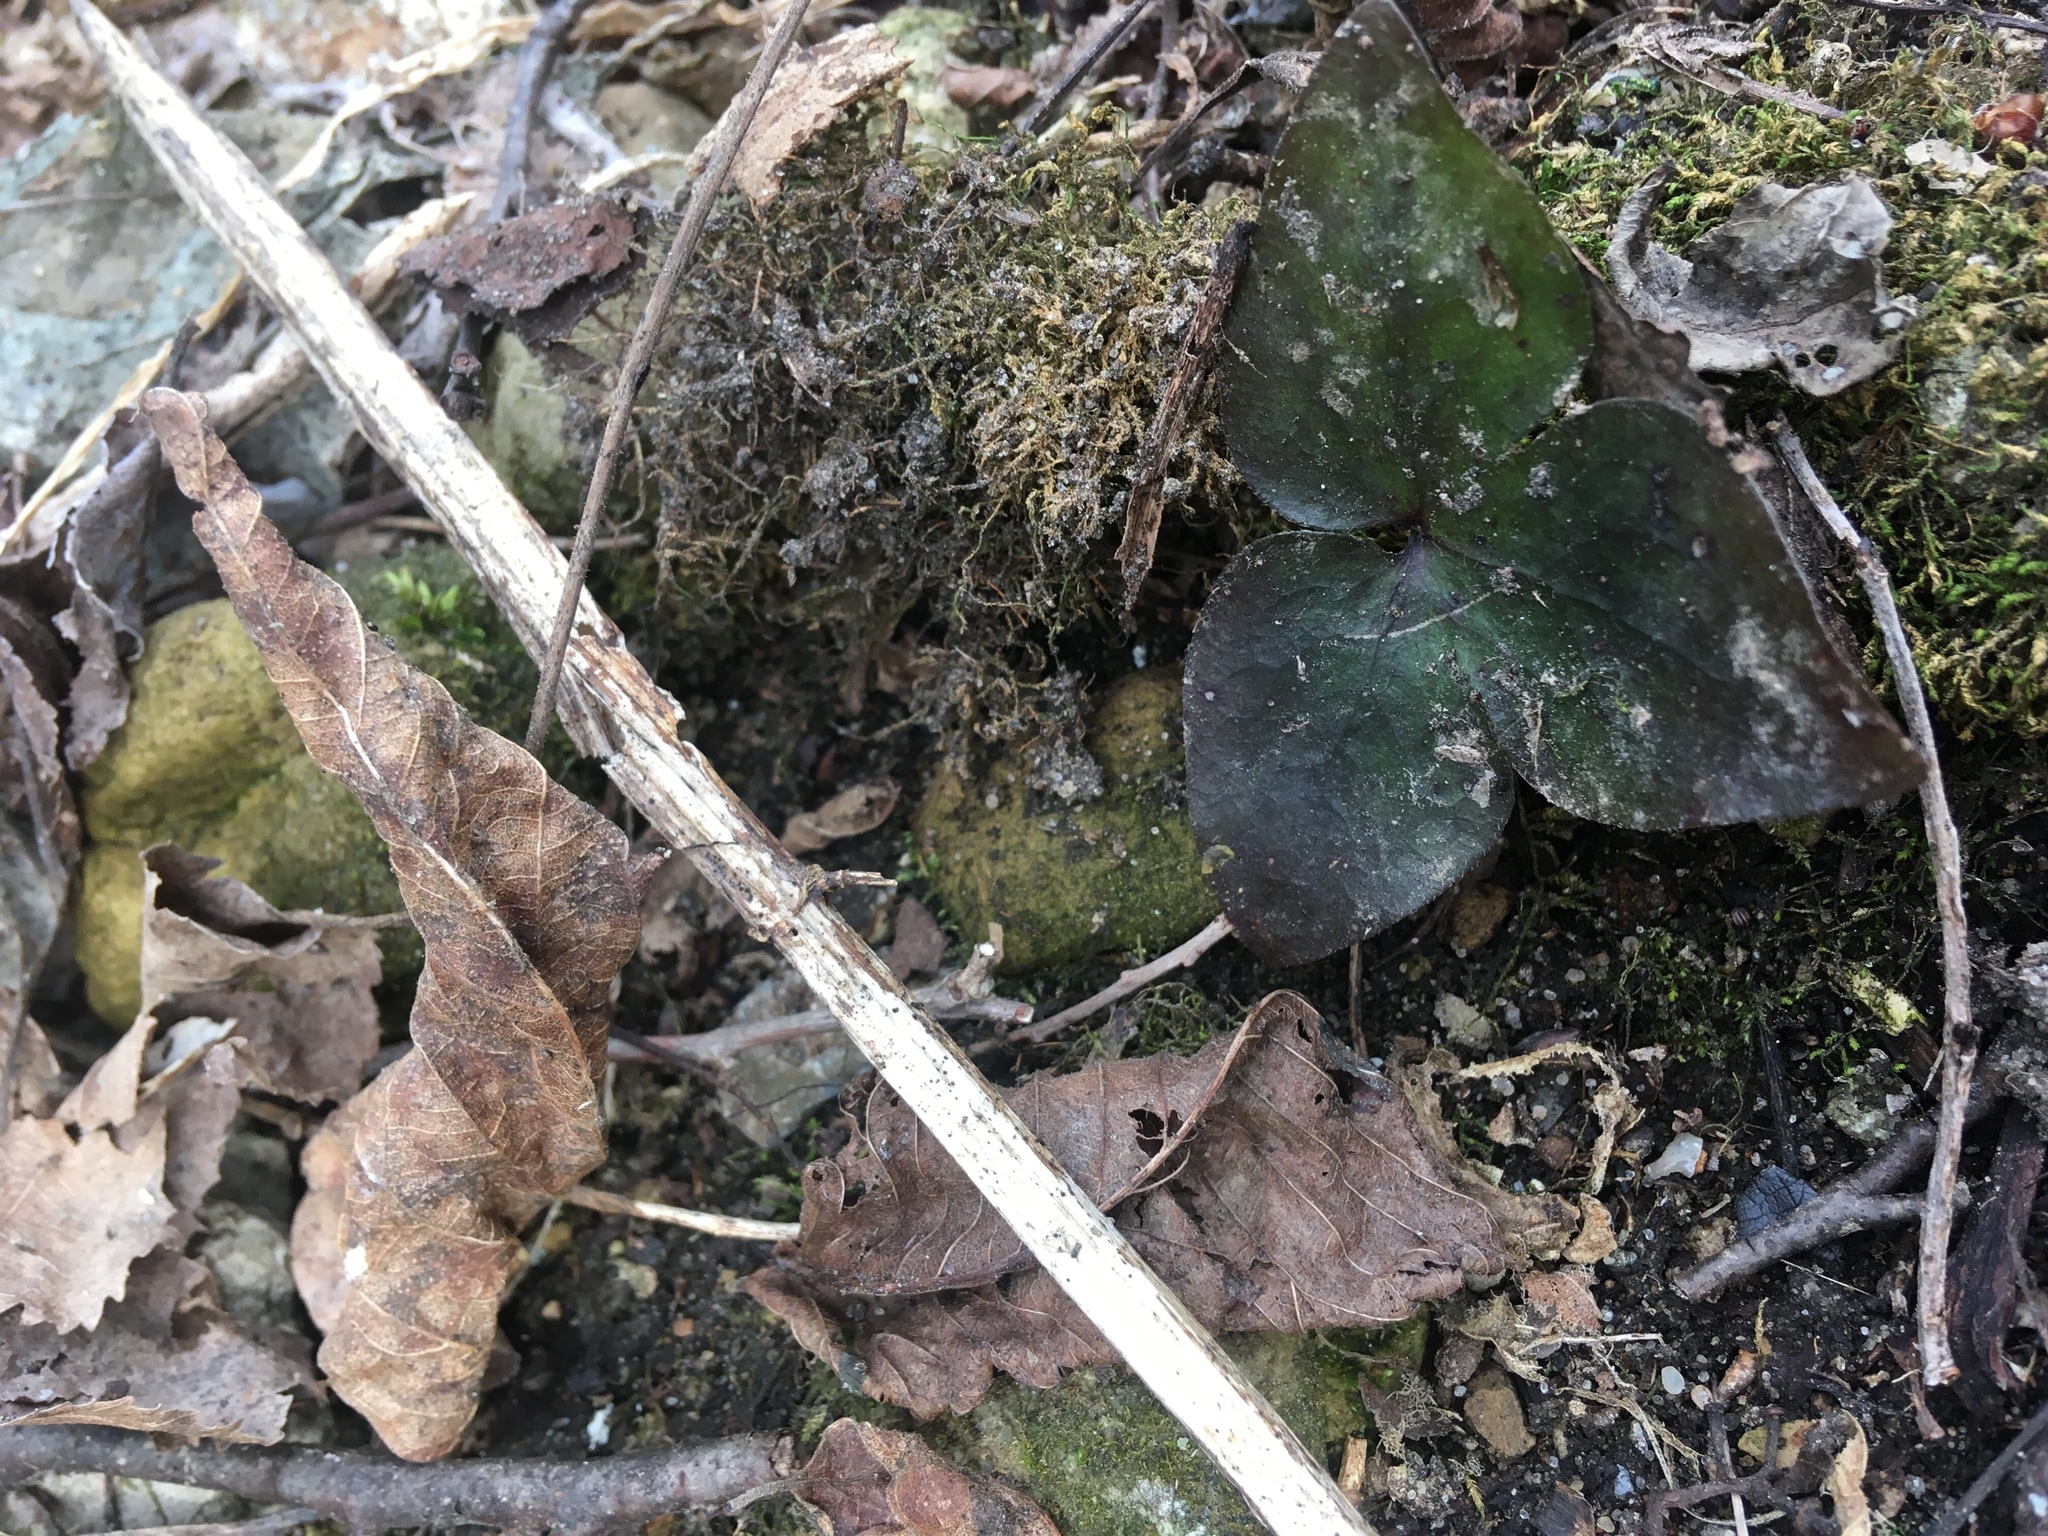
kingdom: Plantae
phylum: Tracheophyta
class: Magnoliopsida
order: Ranunculales
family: Ranunculaceae
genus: Hepatica
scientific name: Hepatica acutiloba
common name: Sharp-lobed hepatica
